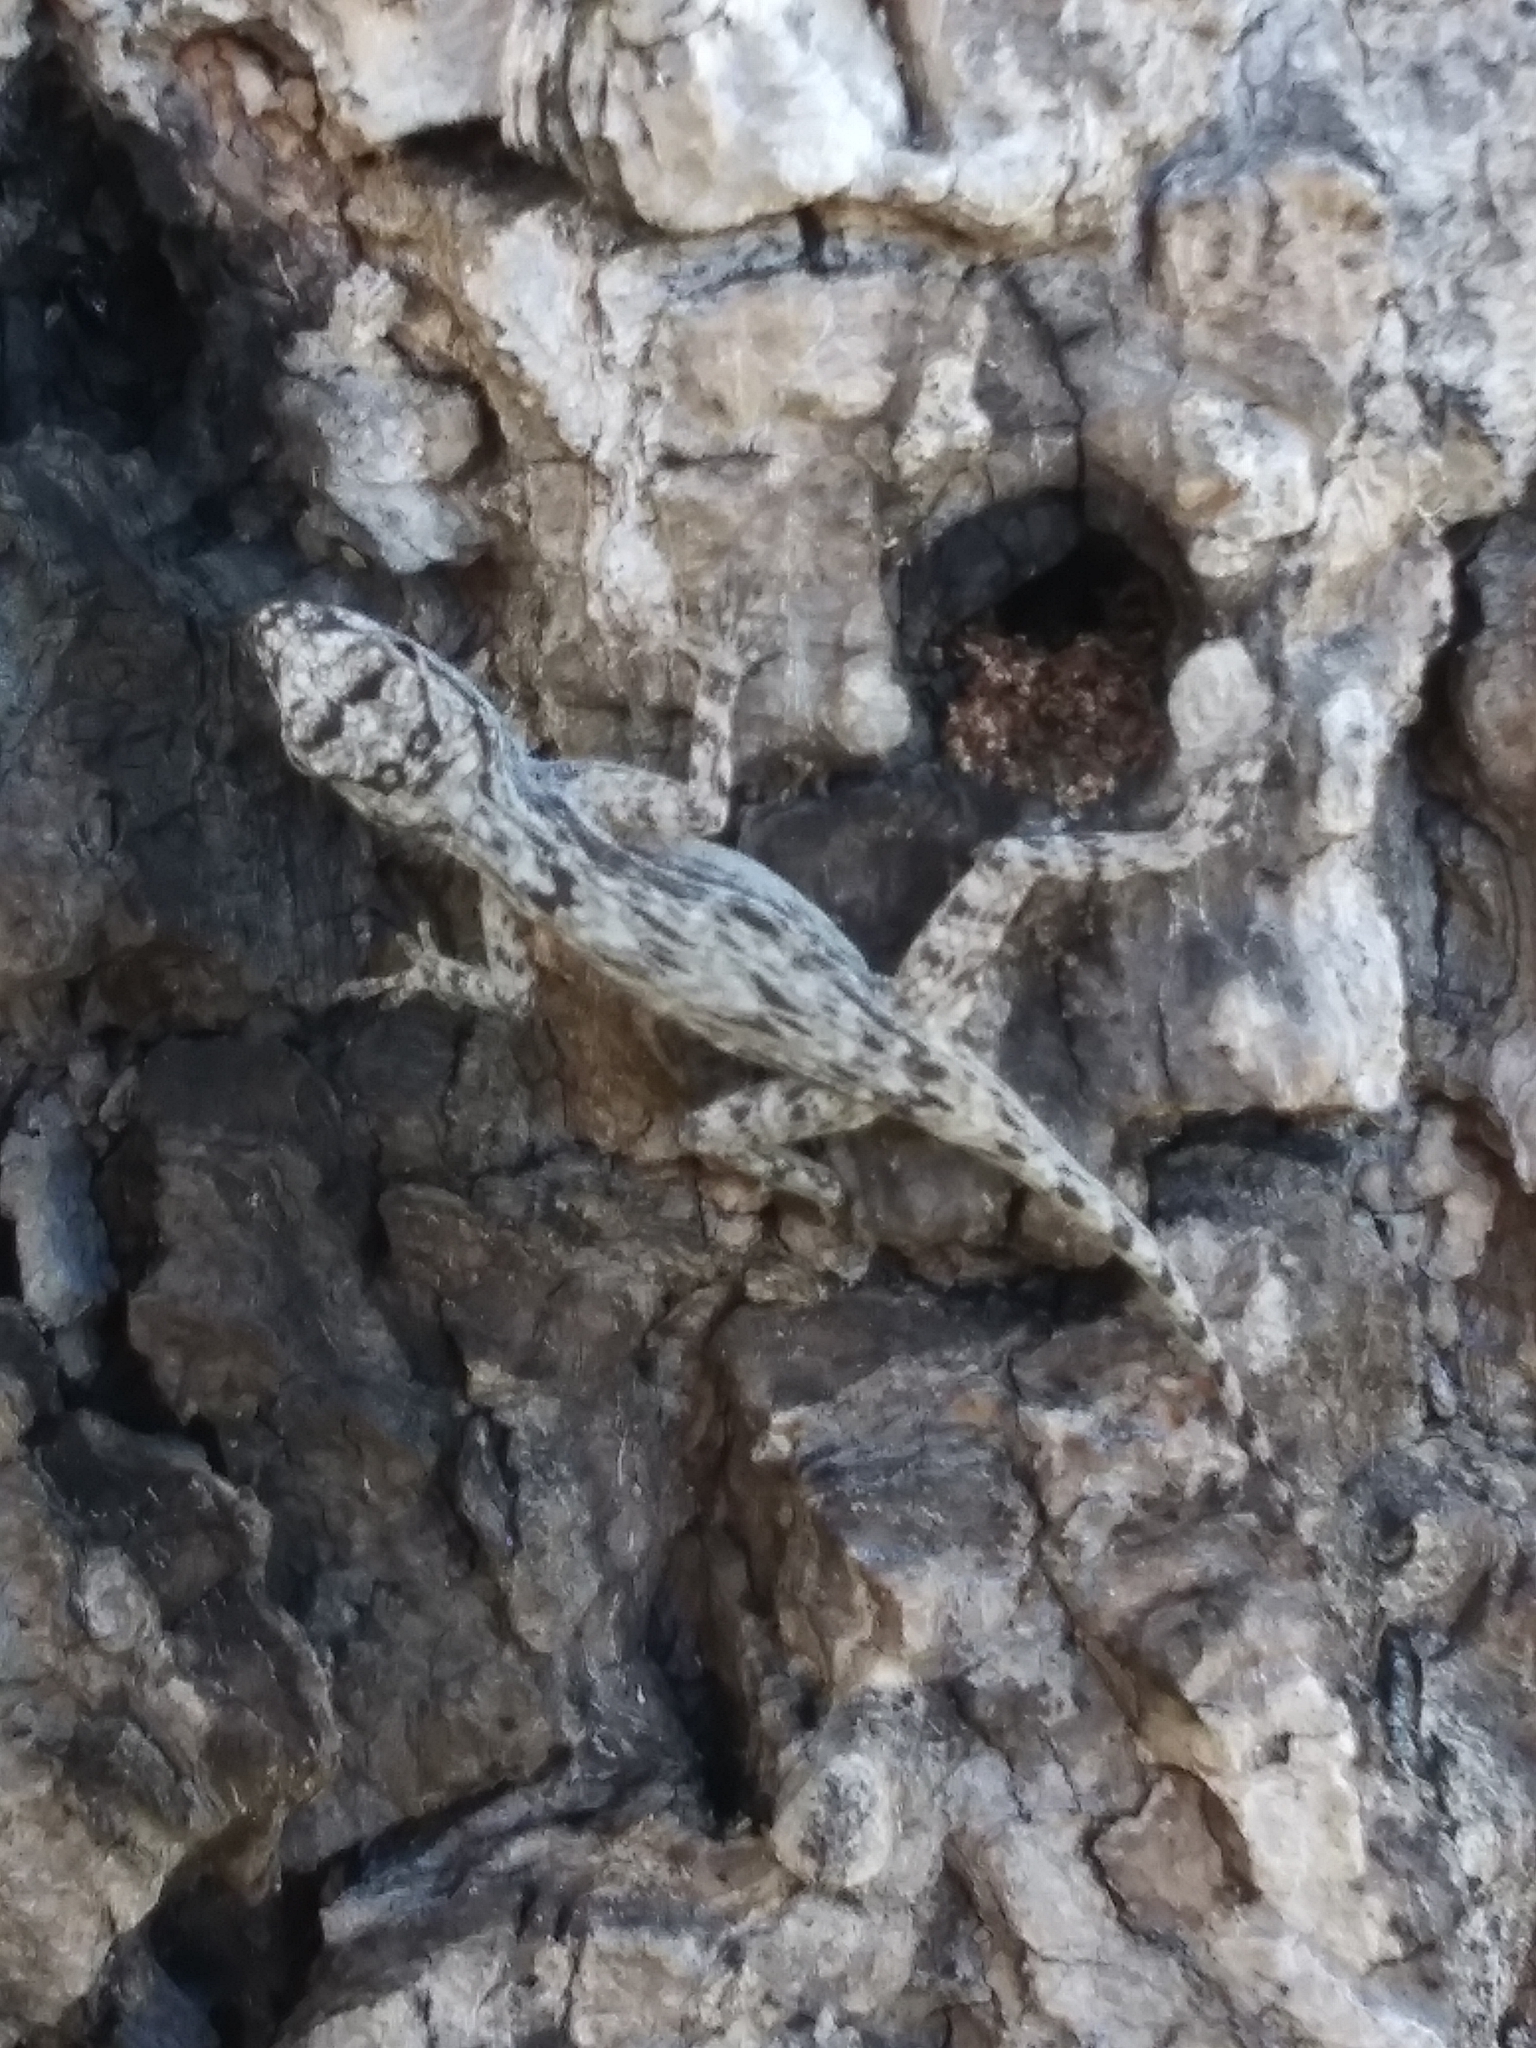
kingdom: Animalia
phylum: Chordata
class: Squamata
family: Dactyloidae
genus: Anolis
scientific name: Anolis distichus
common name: Bark anole
